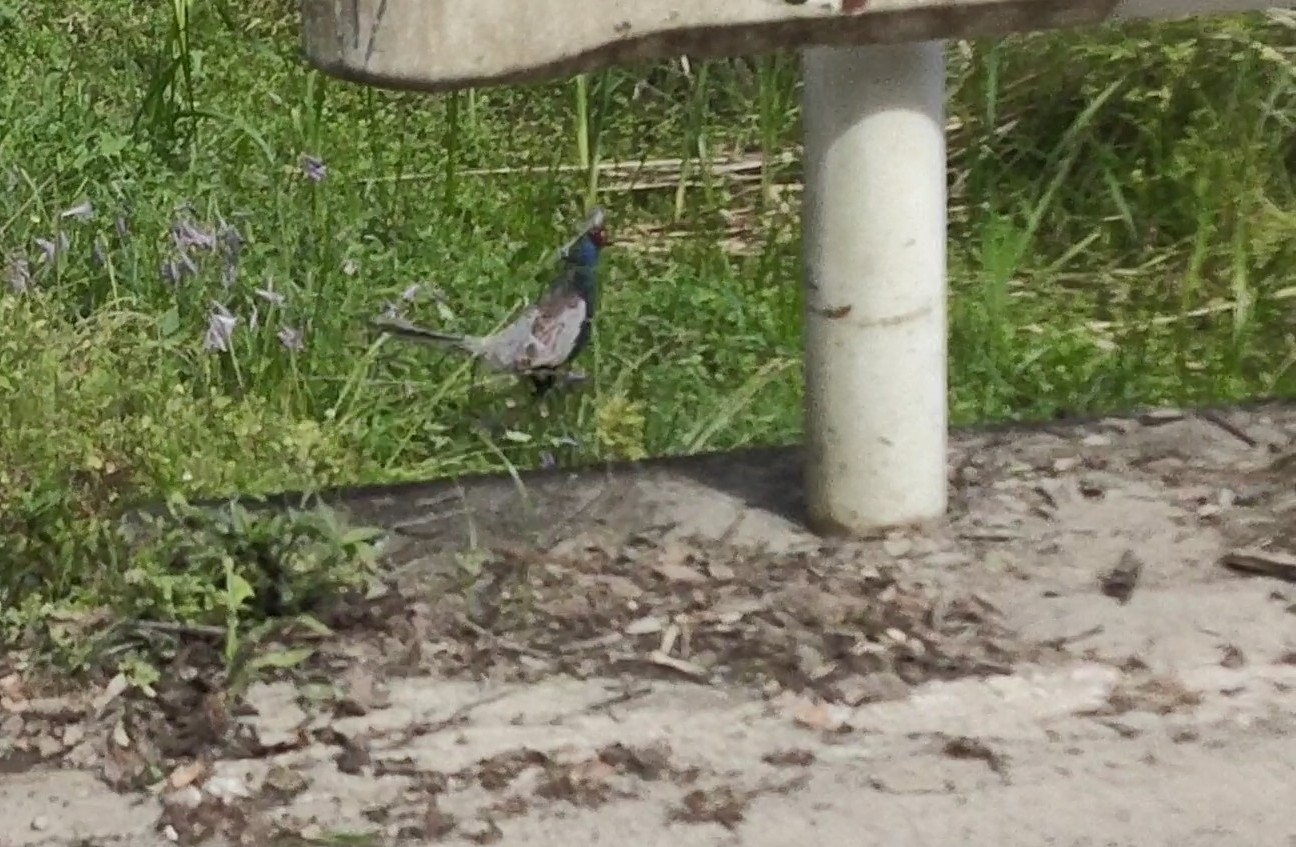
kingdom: Animalia
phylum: Chordata
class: Aves
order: Galliformes
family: Phasianidae
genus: Phasianus
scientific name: Phasianus versicolor
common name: Green pheasant
